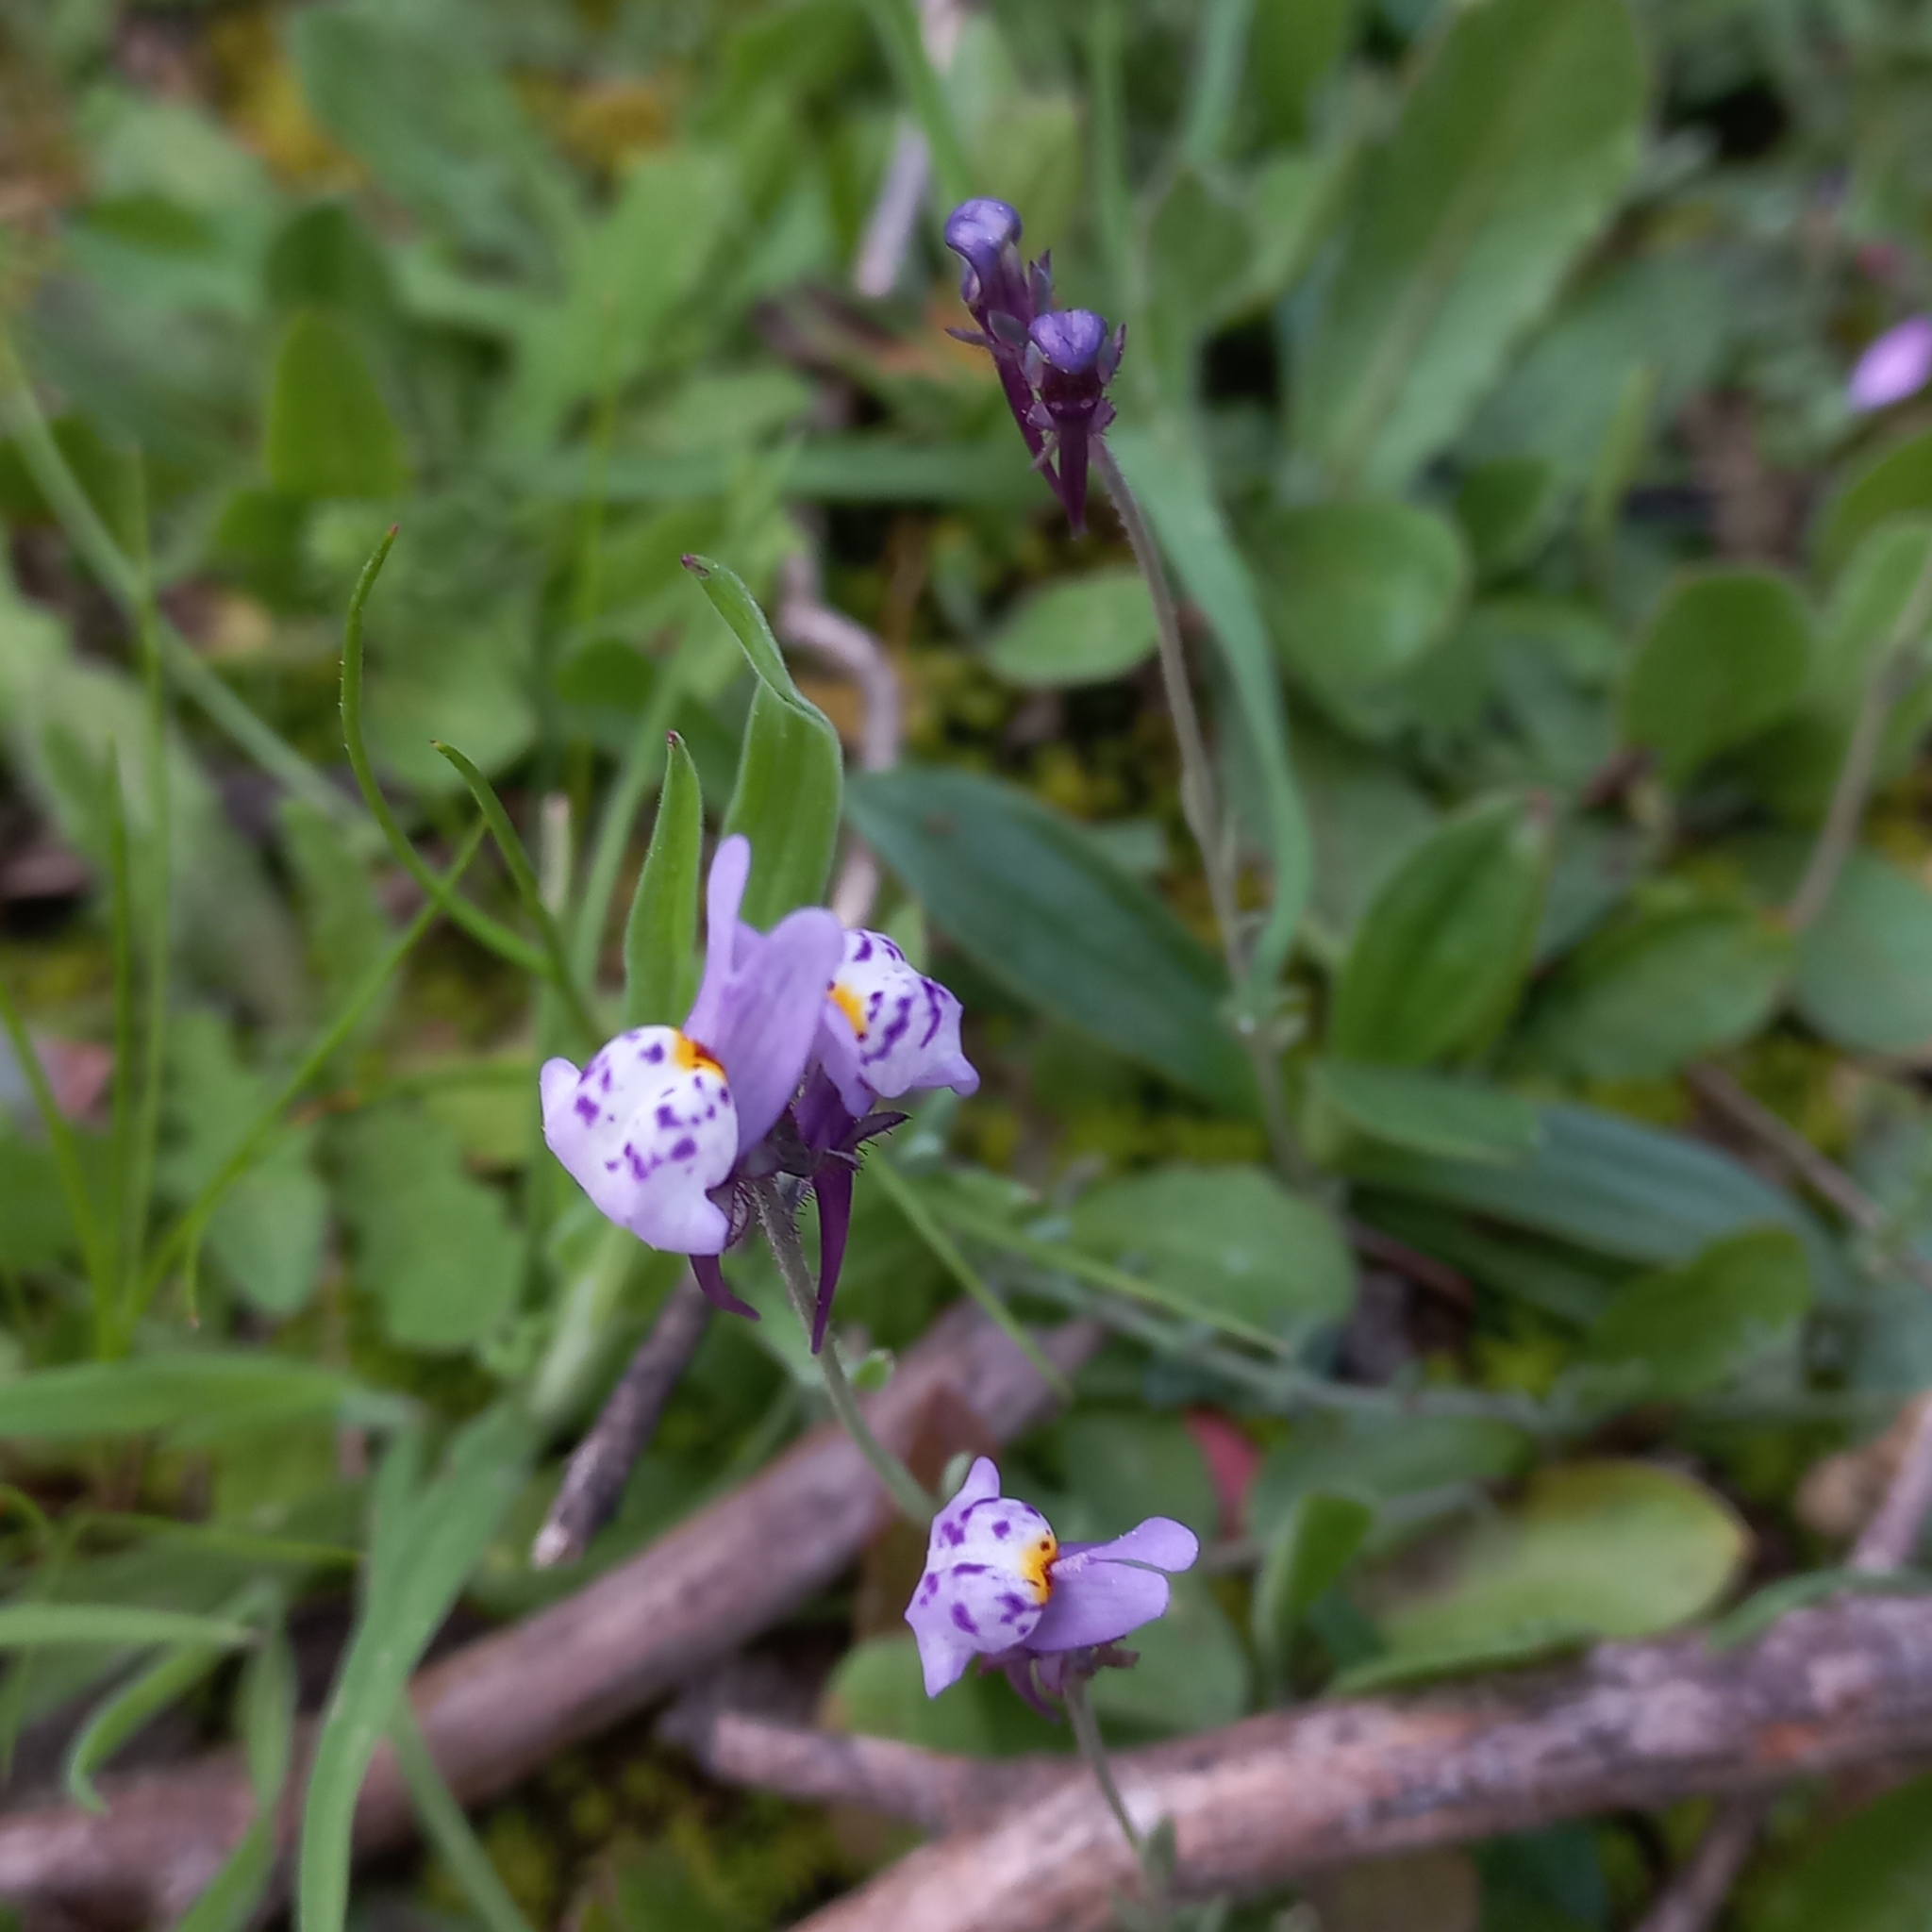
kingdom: Plantae
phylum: Tracheophyta
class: Magnoliopsida
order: Lamiales
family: Plantaginaceae
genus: Linaria
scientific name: Linaria amethystea
